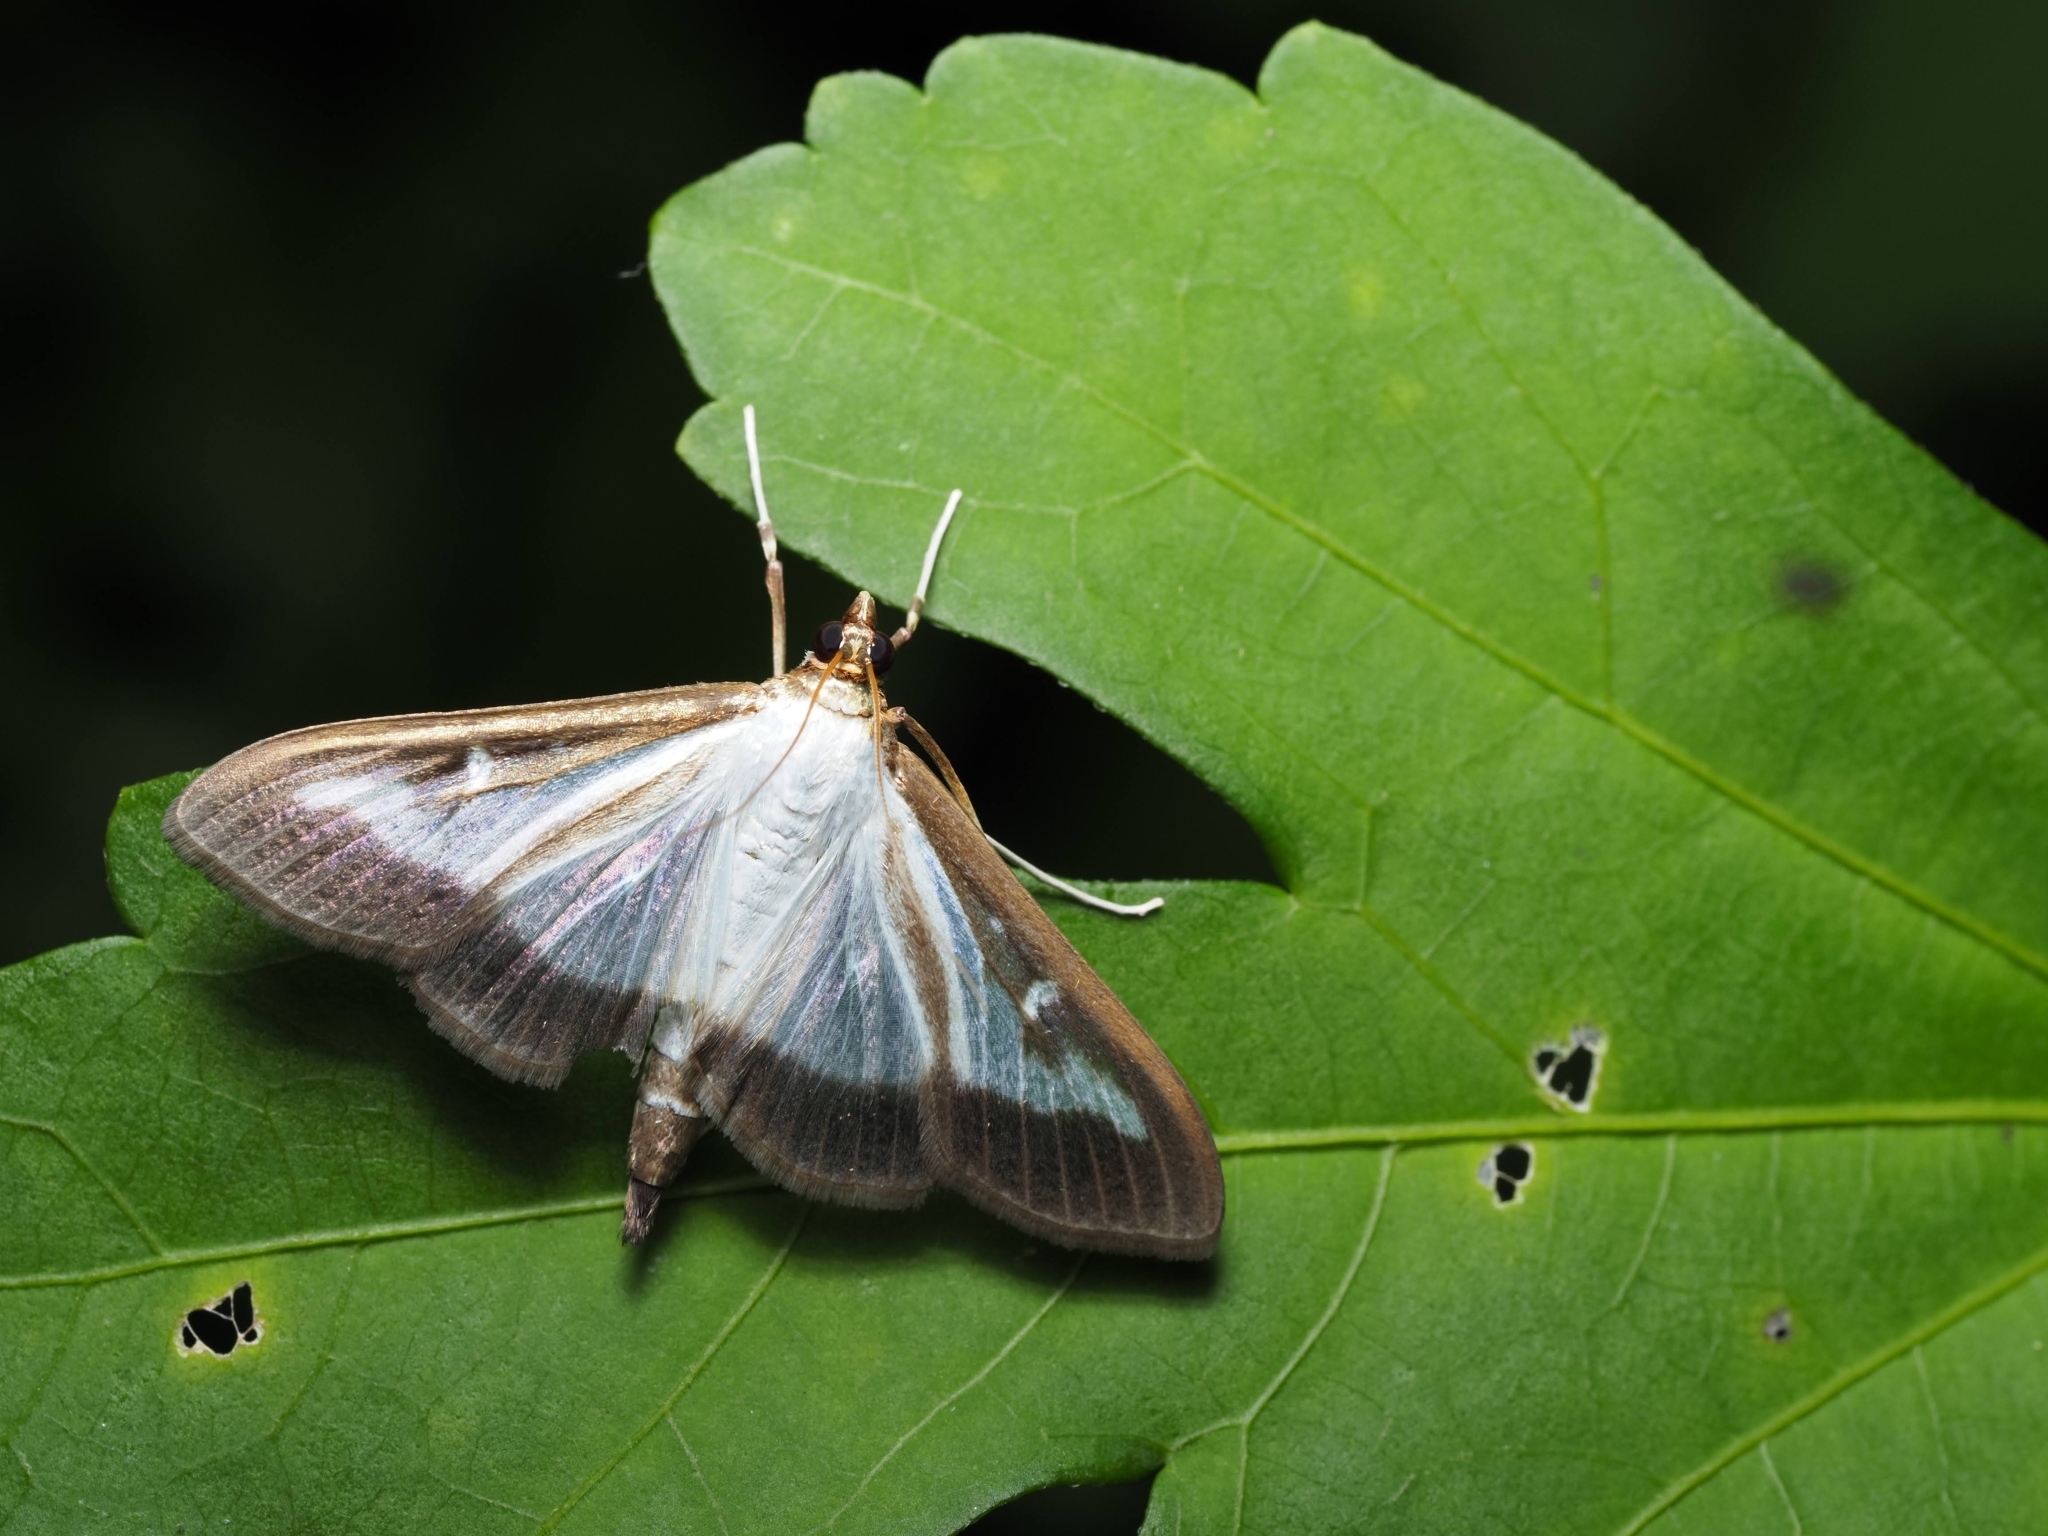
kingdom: Animalia
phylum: Arthropoda
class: Insecta
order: Lepidoptera
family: Crambidae
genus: Cydalima
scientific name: Cydalima perspectalis
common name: Box tree moth
